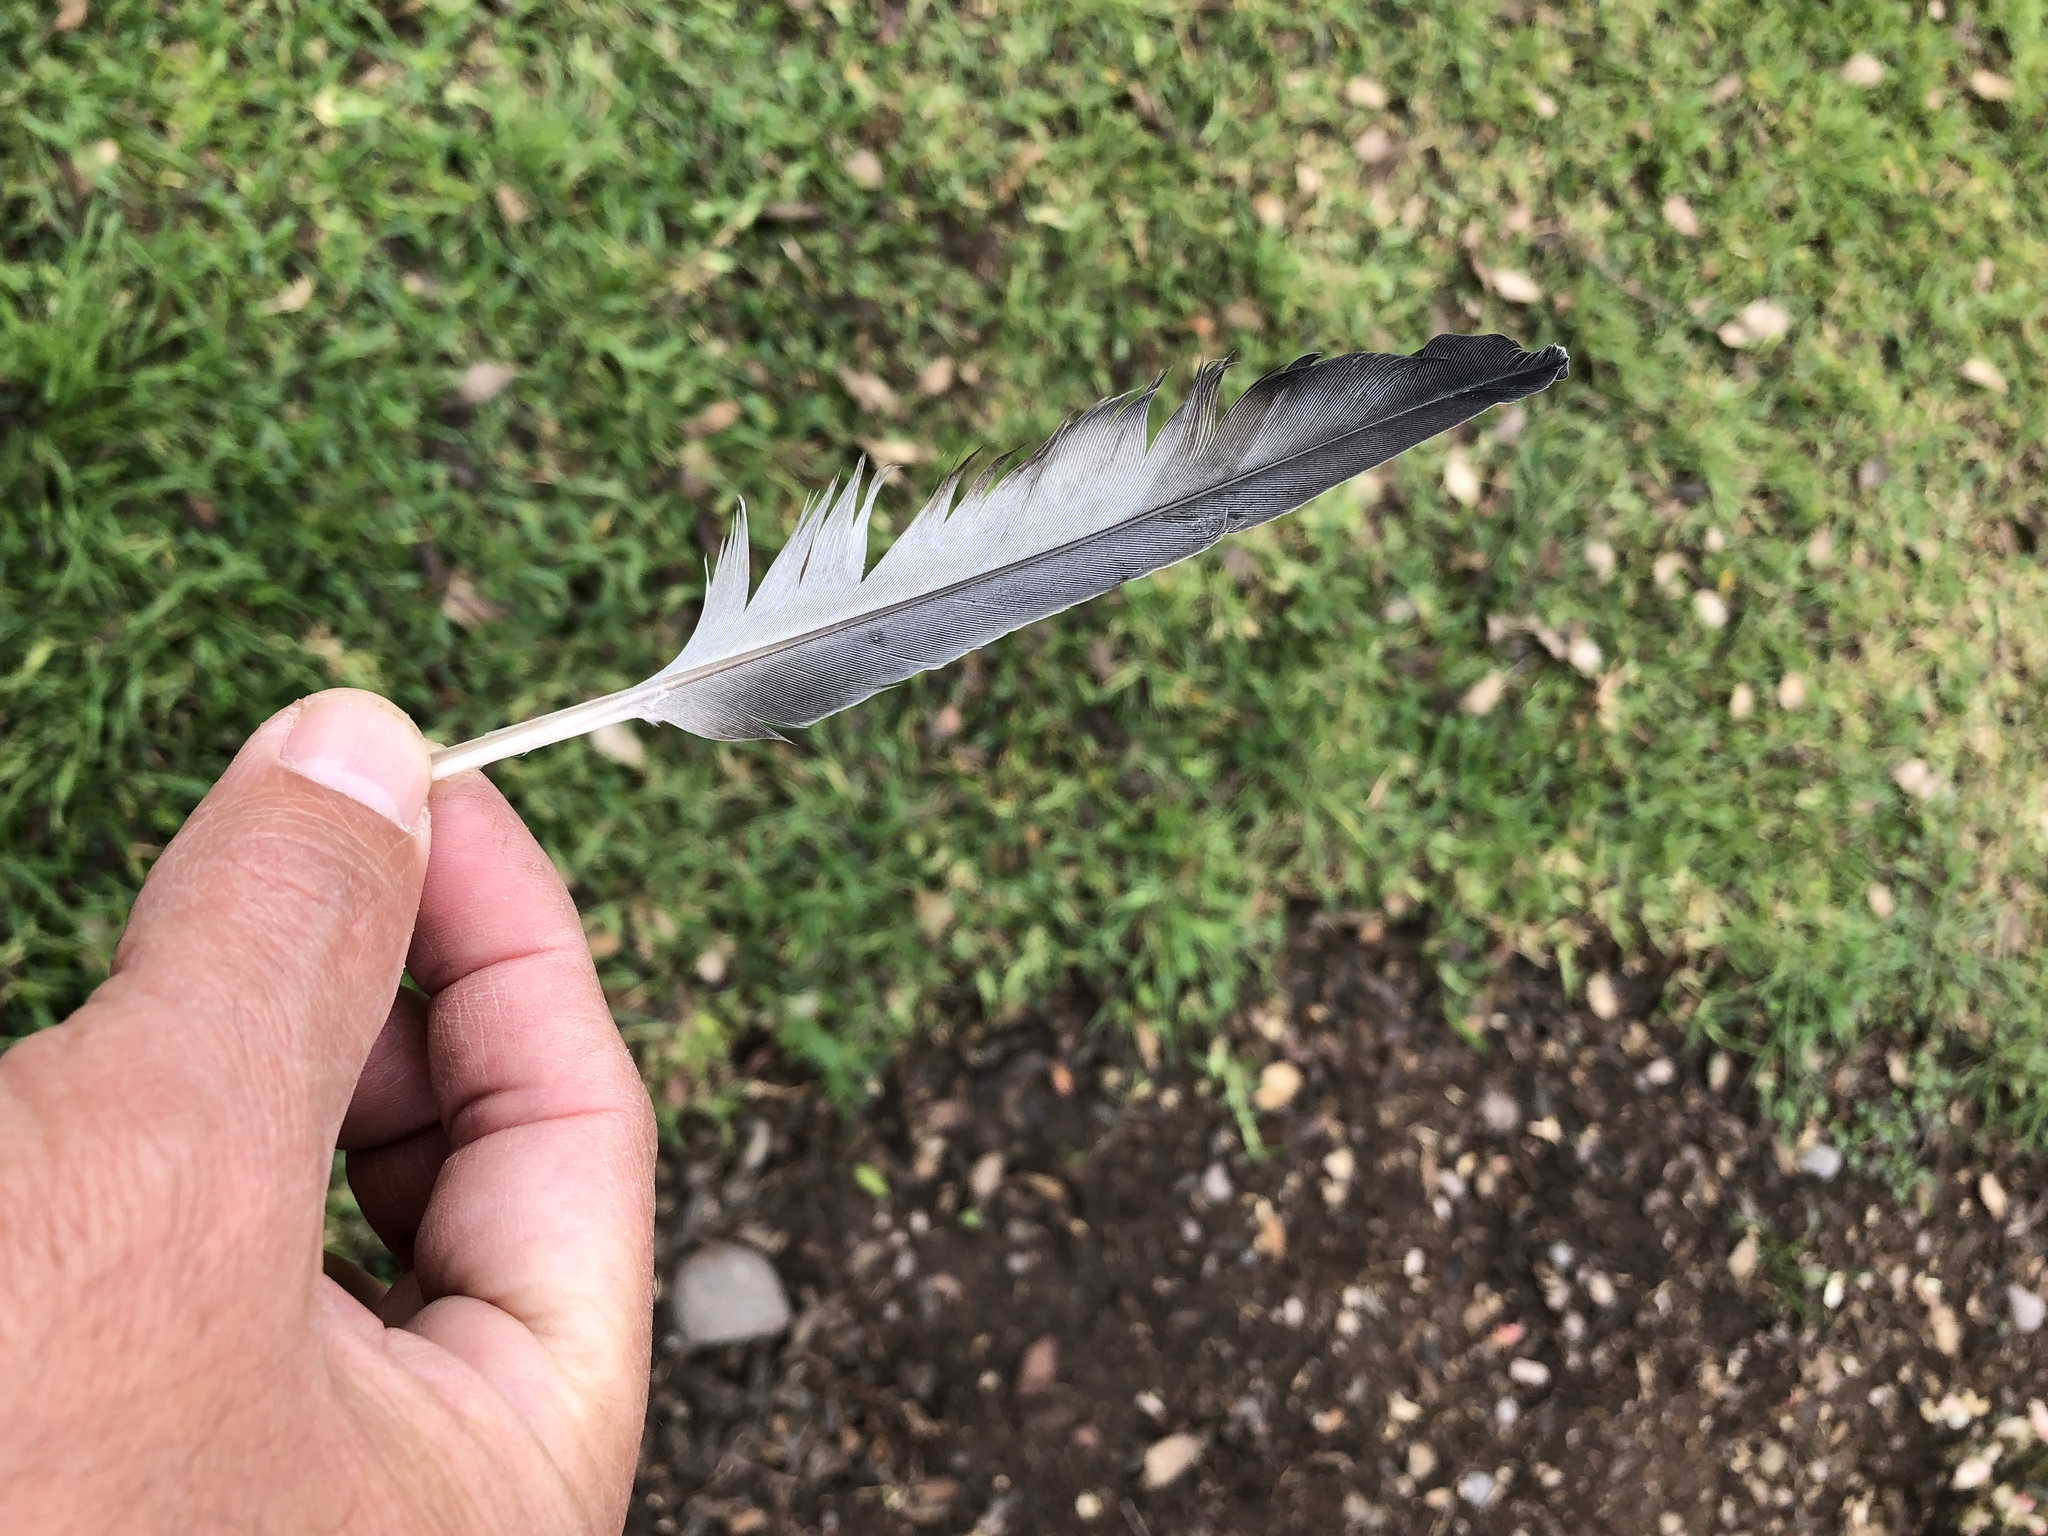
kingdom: Animalia
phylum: Chordata
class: Aves
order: Columbiformes
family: Columbidae
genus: Columba
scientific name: Columba livia
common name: Rock pigeon
